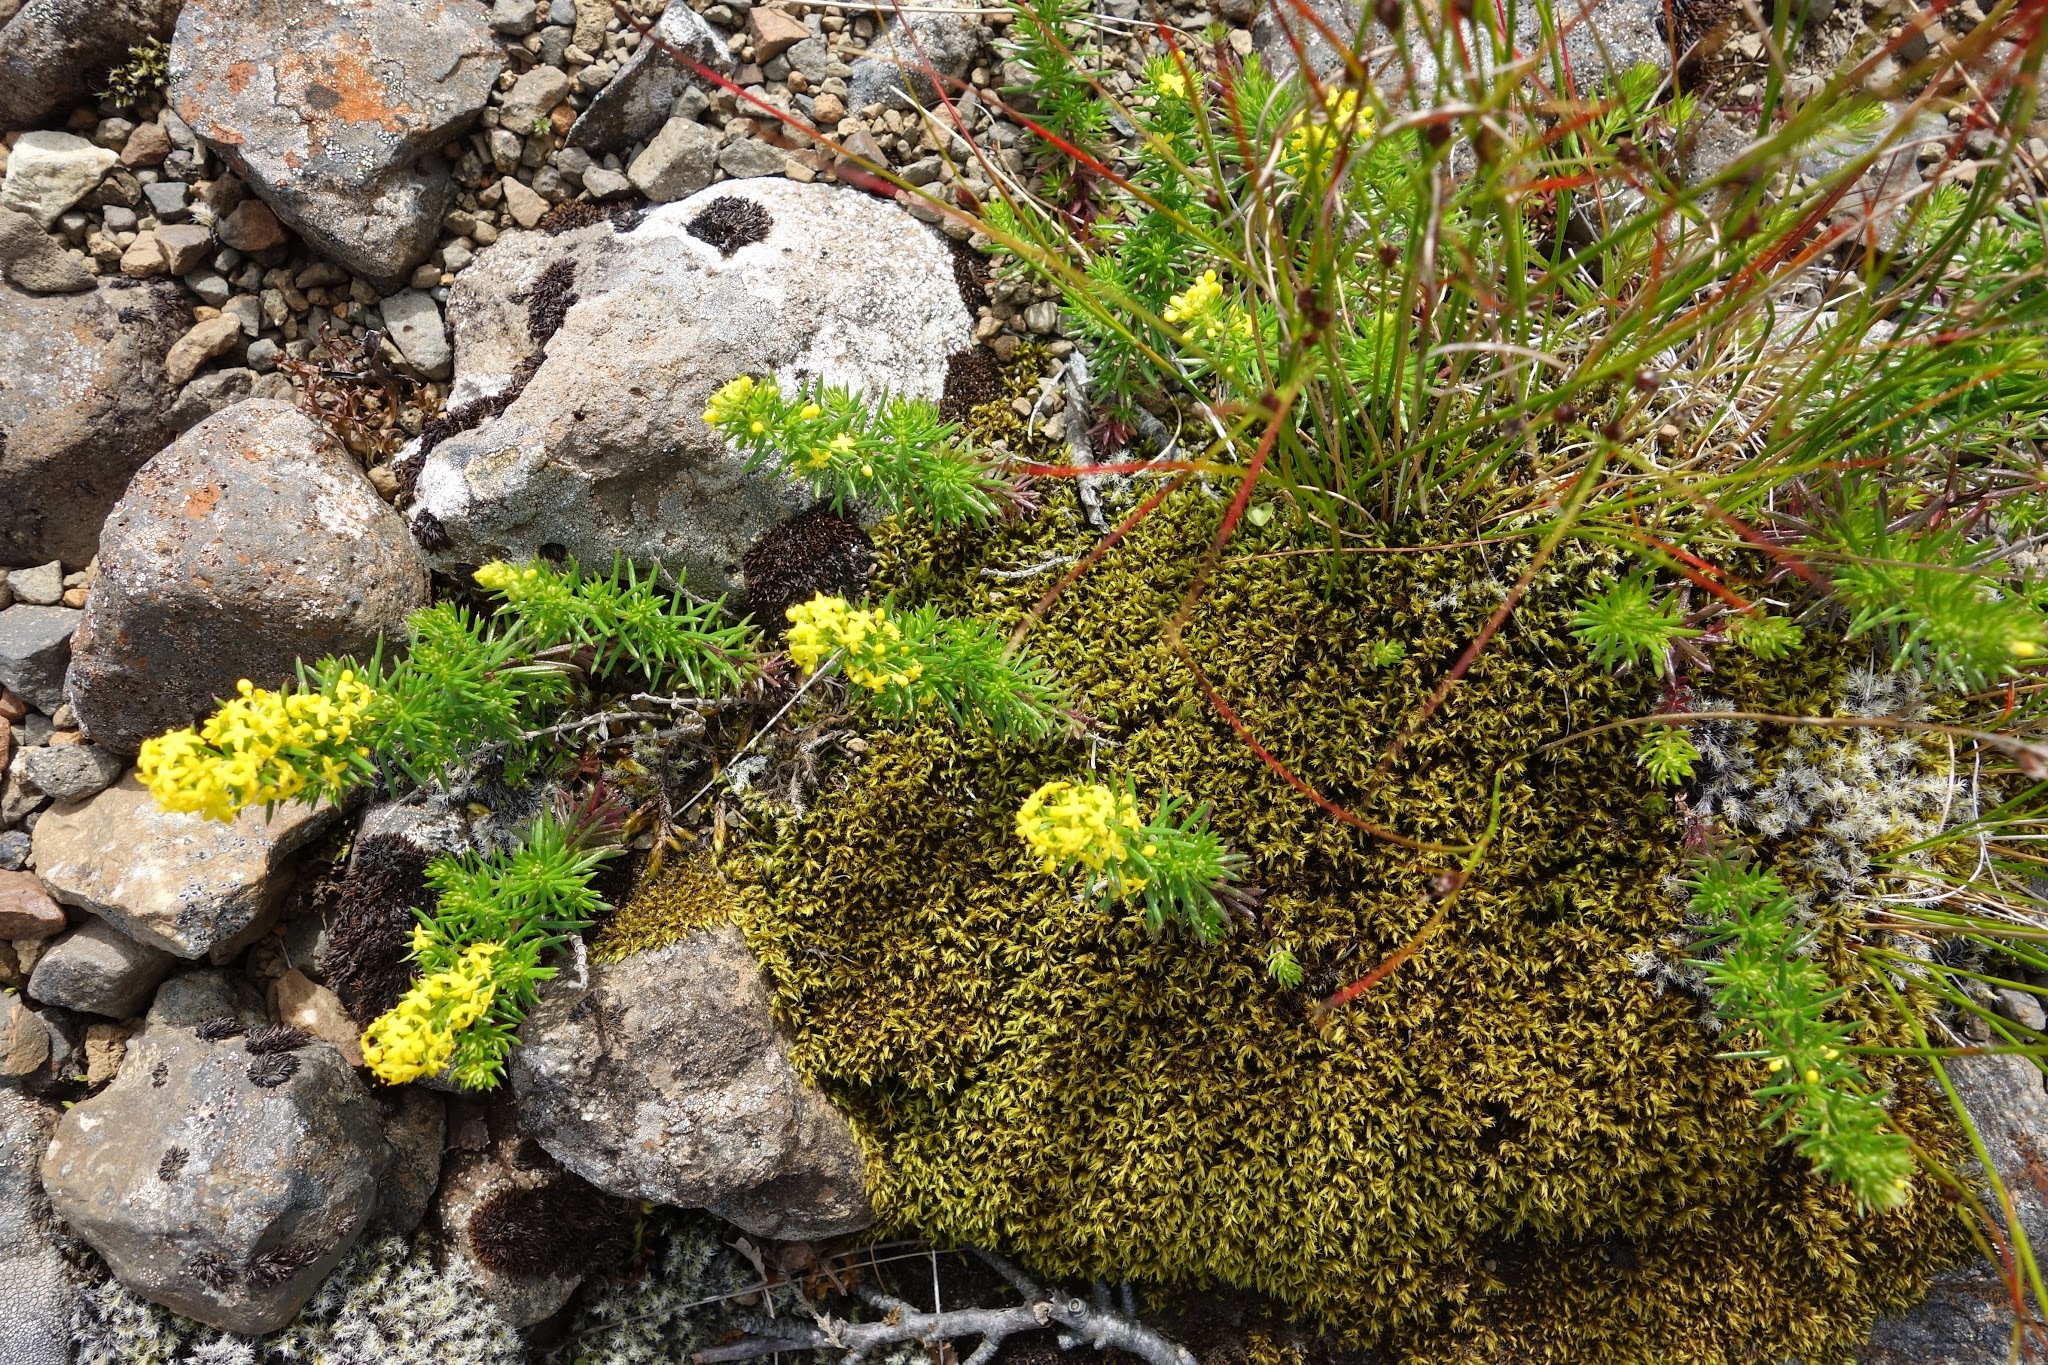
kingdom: Plantae
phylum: Tracheophyta
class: Magnoliopsida
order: Gentianales
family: Rubiaceae
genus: Galium
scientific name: Galium verum
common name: Lady's bedstraw
